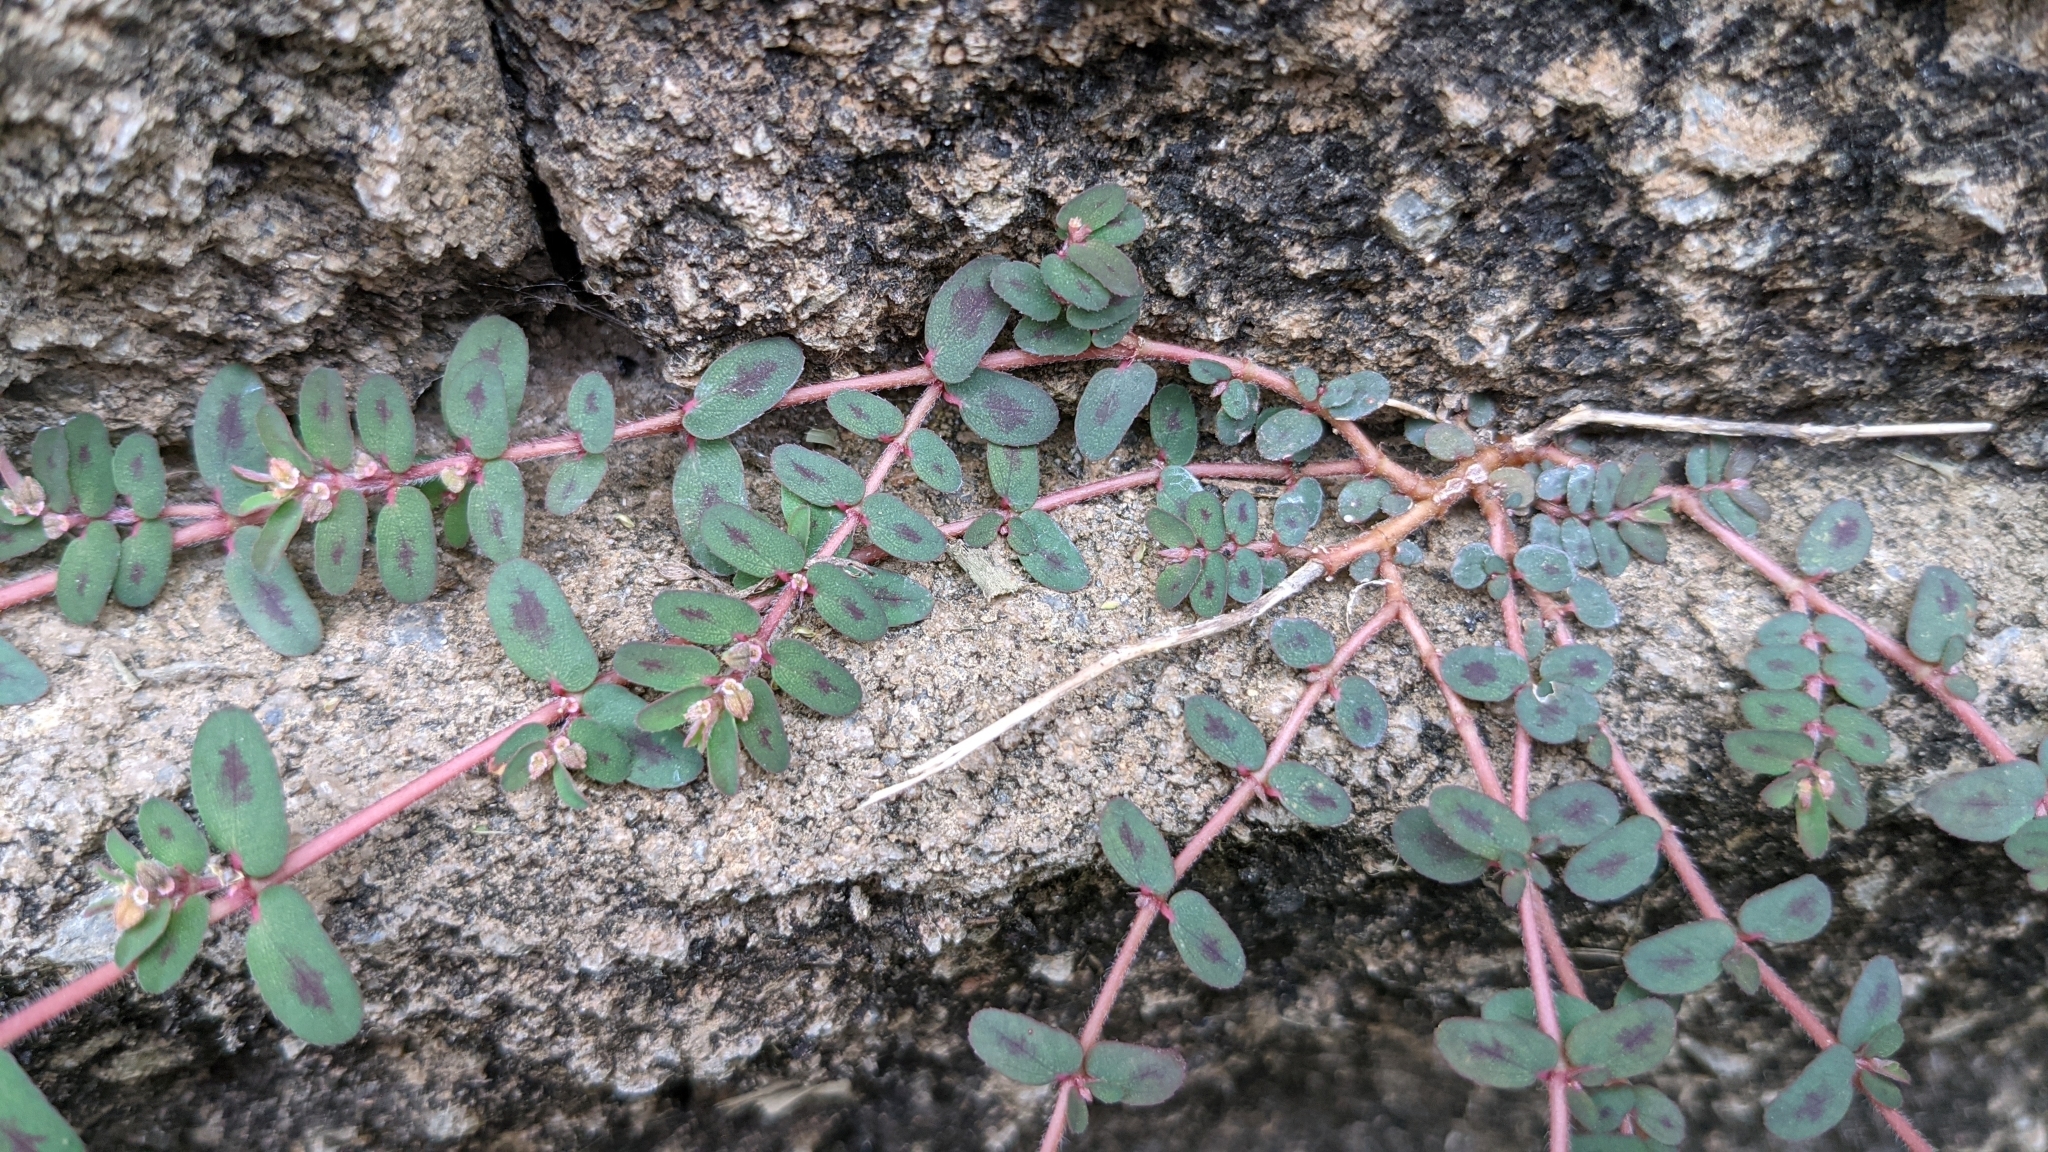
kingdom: Plantae
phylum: Tracheophyta
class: Magnoliopsida
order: Malpighiales
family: Euphorbiaceae
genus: Euphorbia
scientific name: Euphorbia maculata
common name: Spotted spurge
